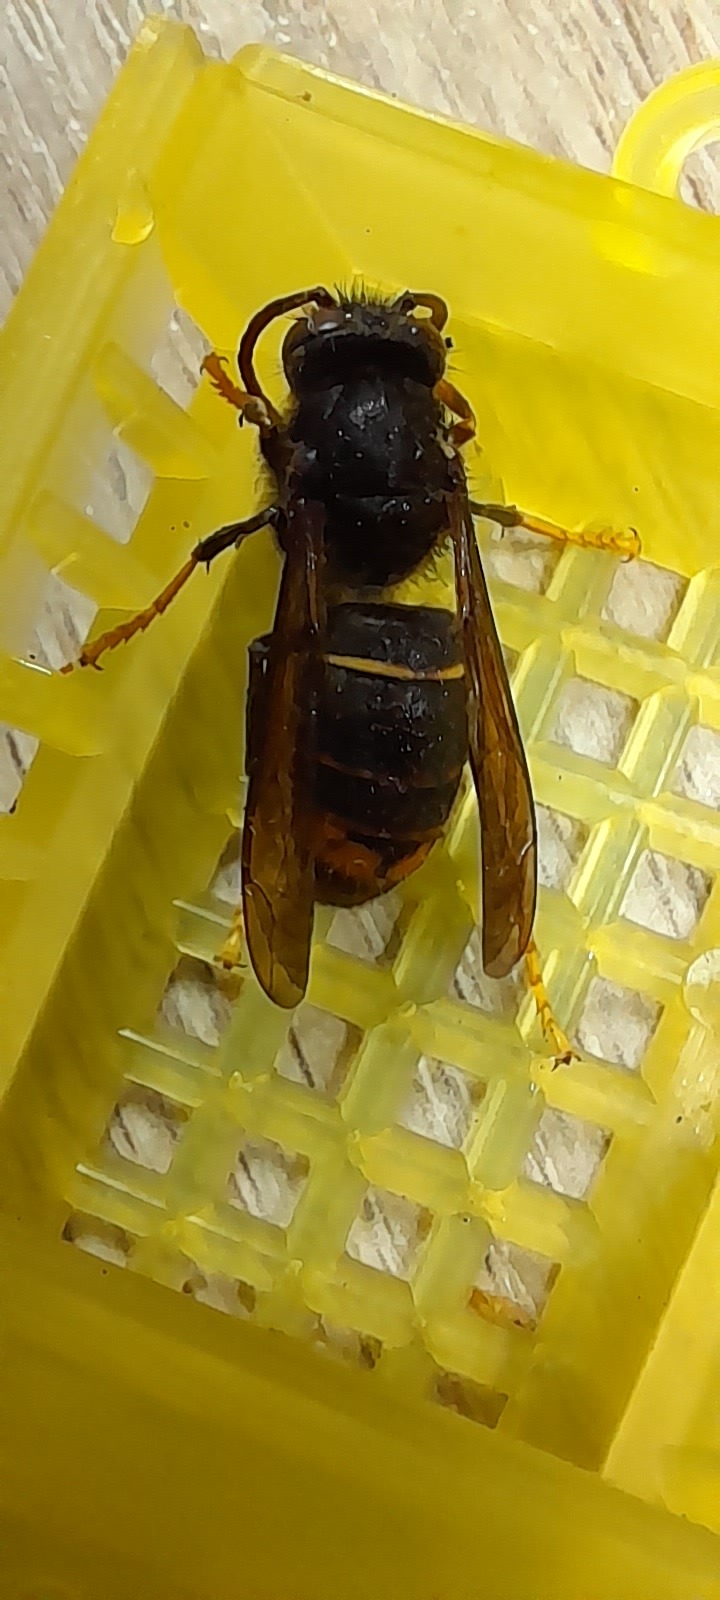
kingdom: Animalia
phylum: Arthropoda
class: Insecta
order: Hymenoptera
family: Vespidae
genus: Vespa
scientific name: Vespa velutina
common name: Asian hornet
